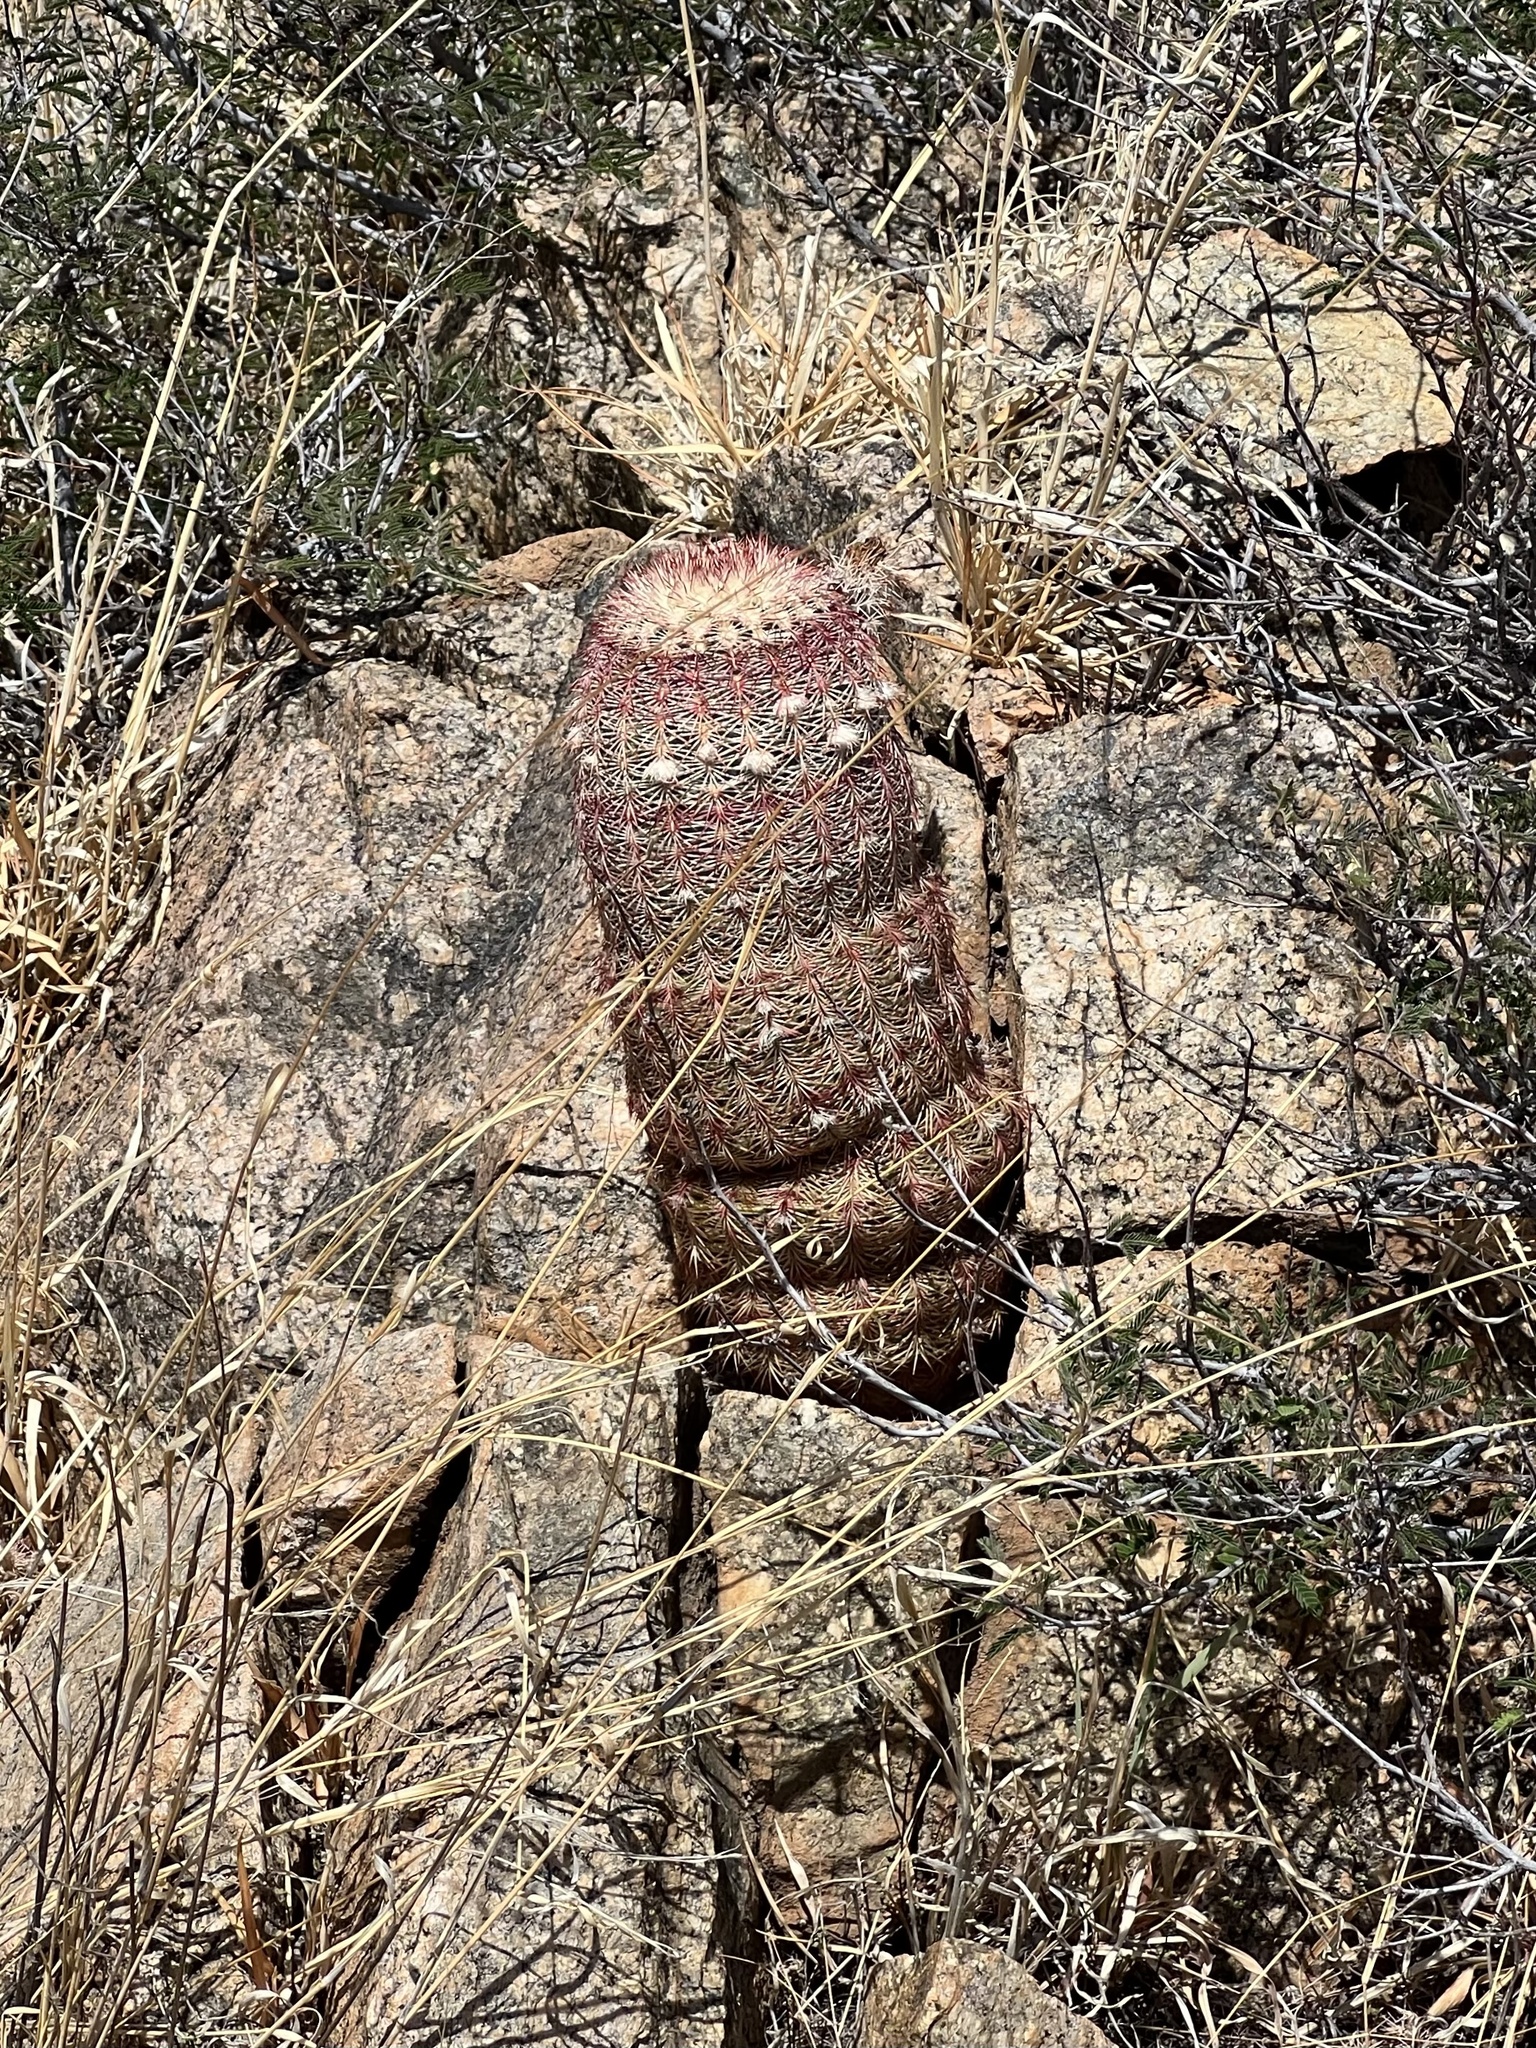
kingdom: Plantae
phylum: Tracheophyta
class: Magnoliopsida
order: Caryophyllales
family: Cactaceae
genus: Echinocereus
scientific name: Echinocereus rigidissimus
